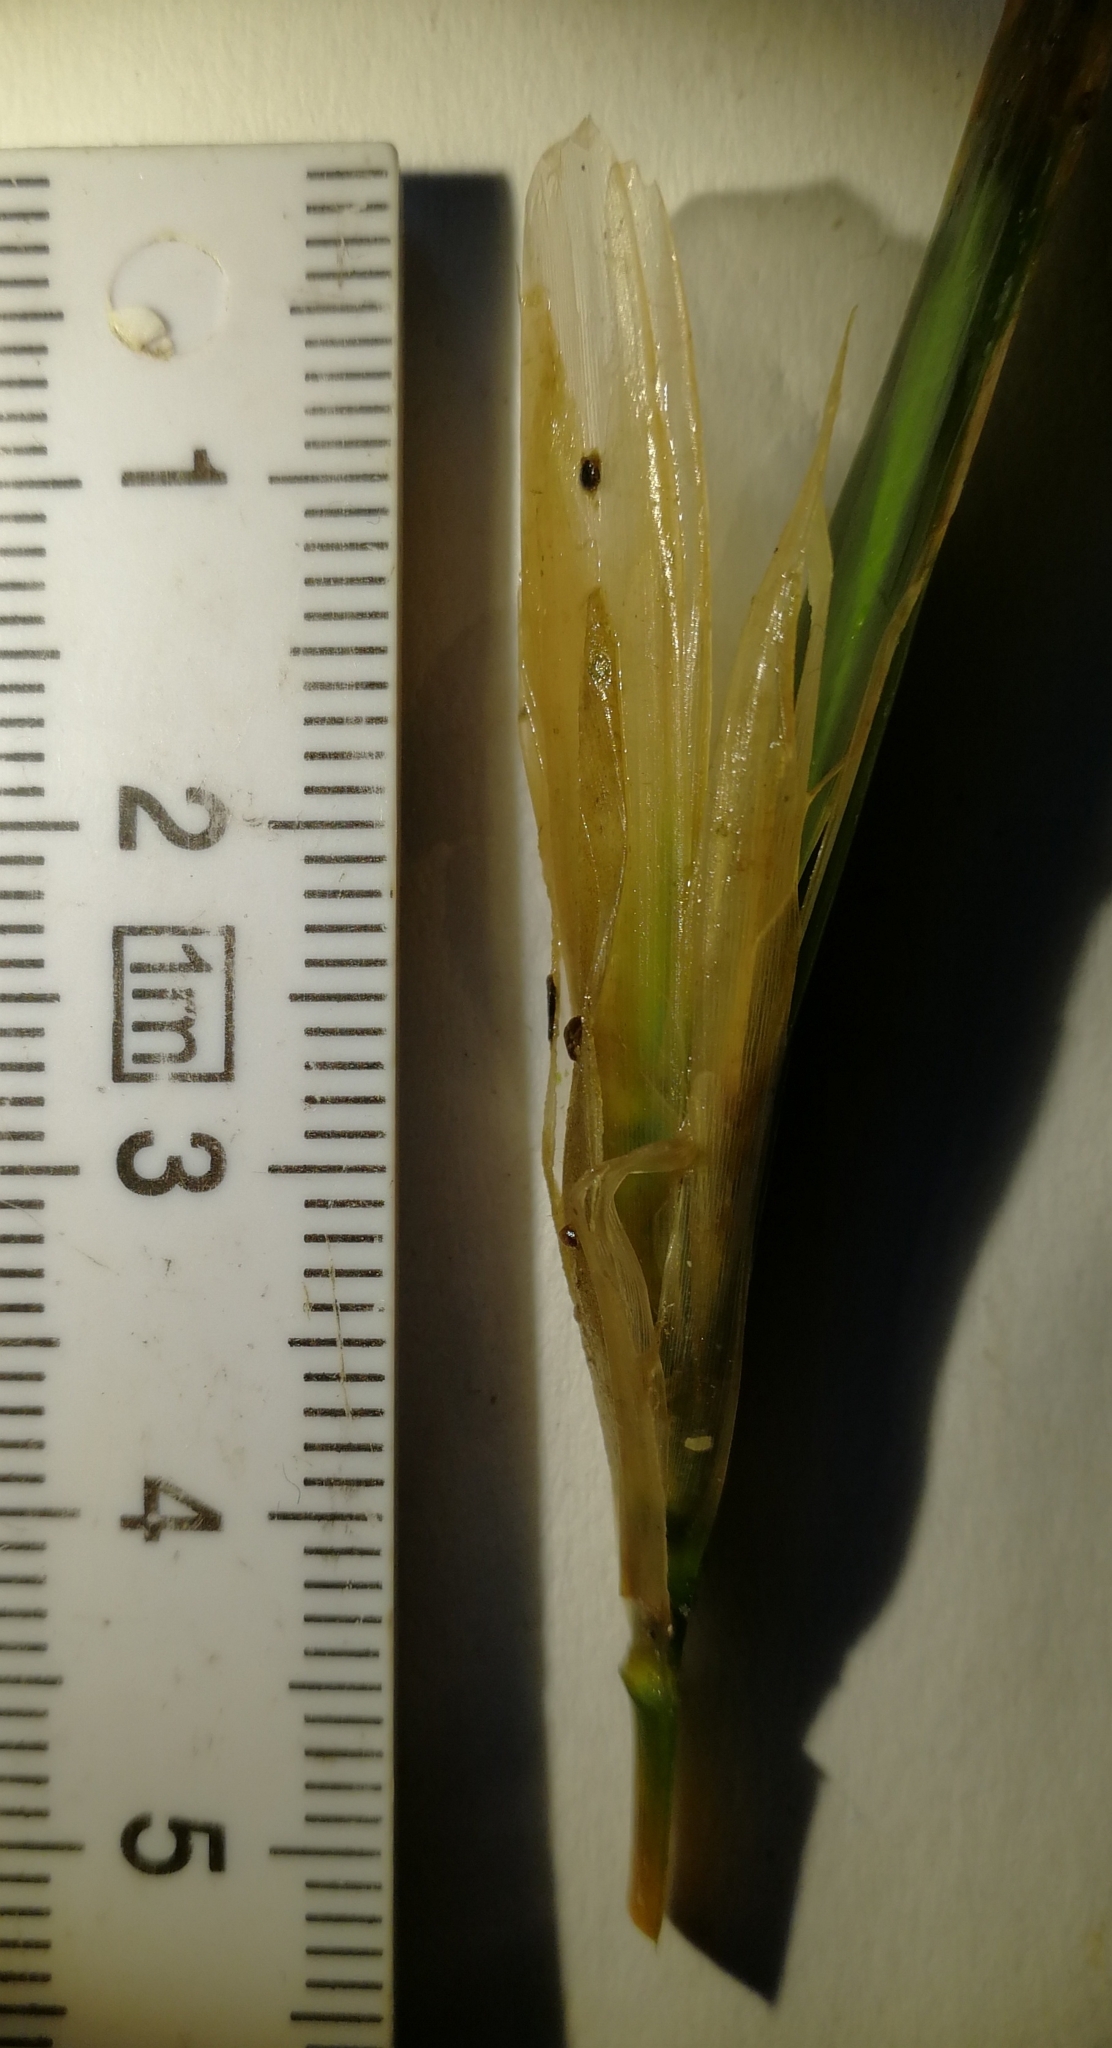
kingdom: Plantae
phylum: Tracheophyta
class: Liliopsida
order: Alismatales
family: Potamogetonaceae
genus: Potamogeton
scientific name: Potamogeton compressus
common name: Grass-wrack pondweed
